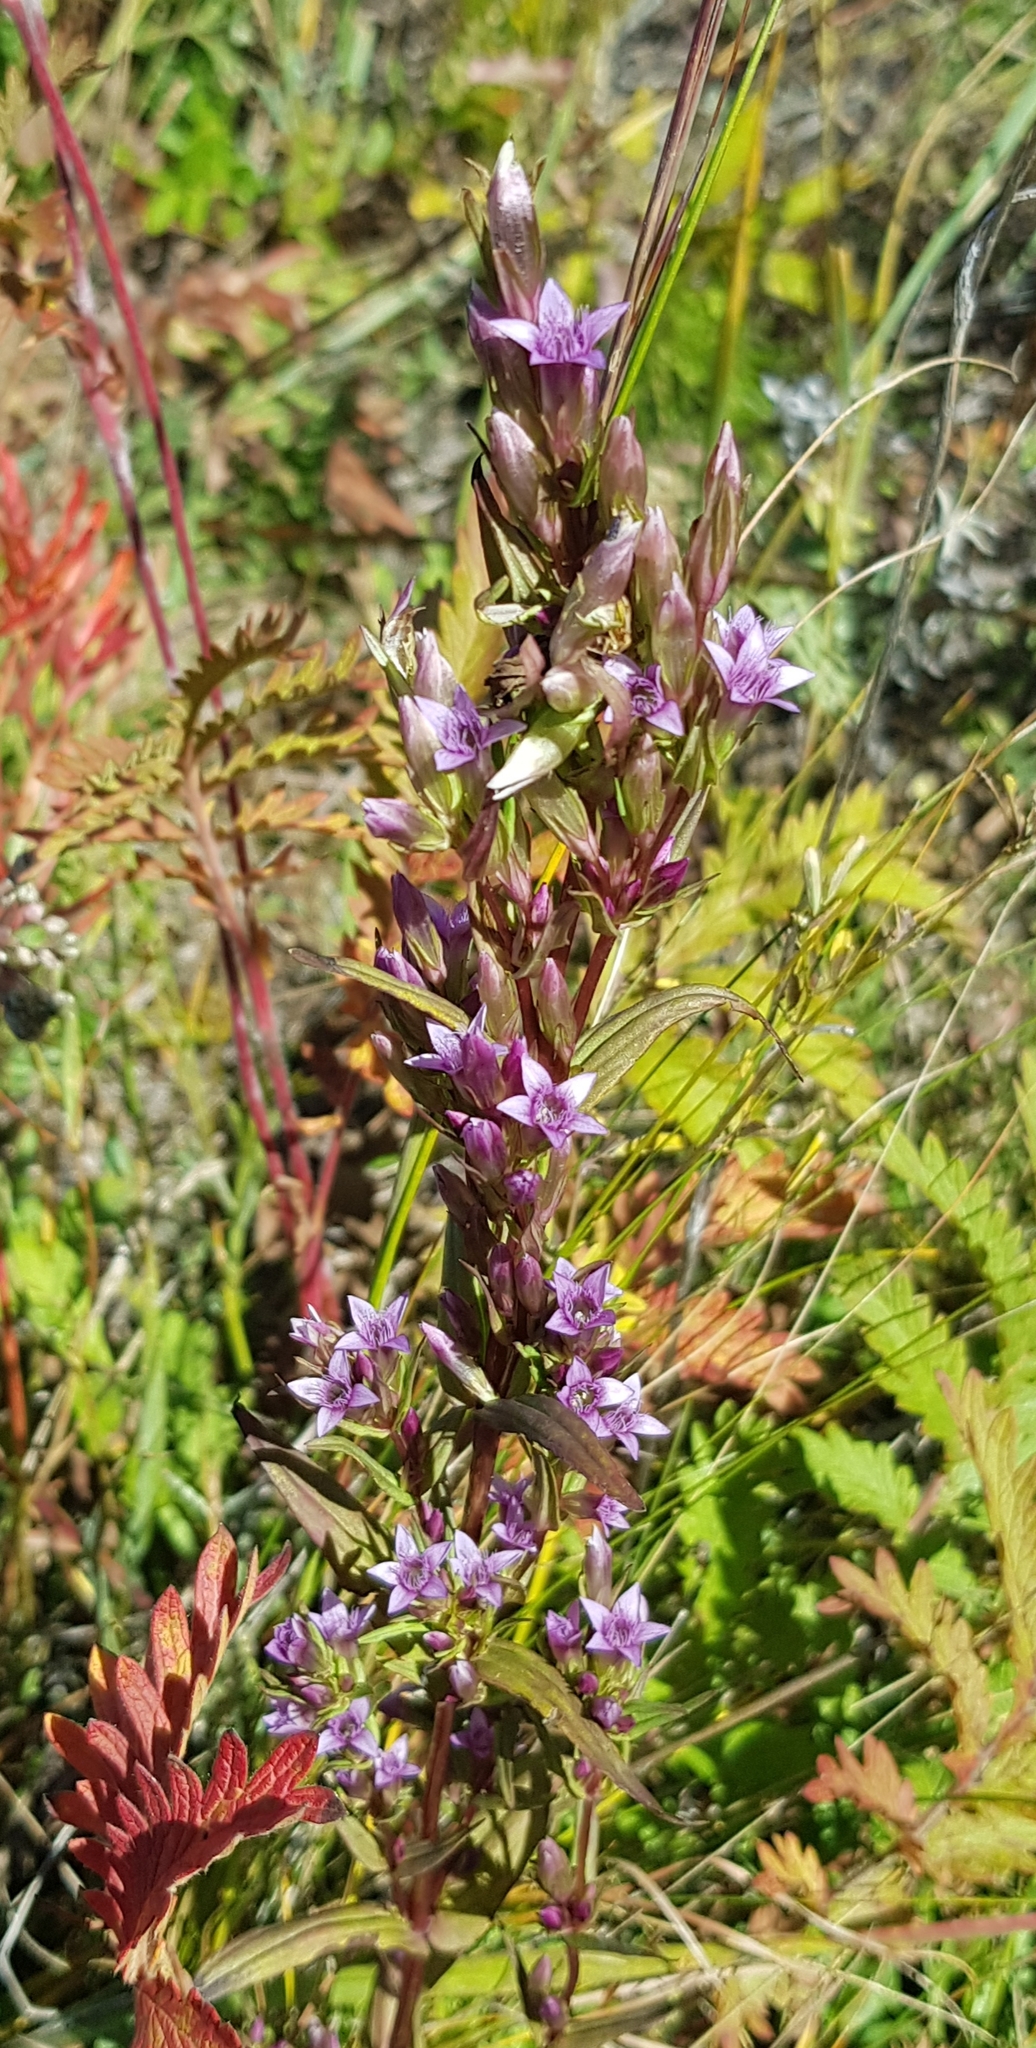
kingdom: Plantae
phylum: Tracheophyta
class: Magnoliopsida
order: Gentianales
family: Gentianaceae
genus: Gentianella
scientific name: Gentianella amarella
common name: Autumn gentian
